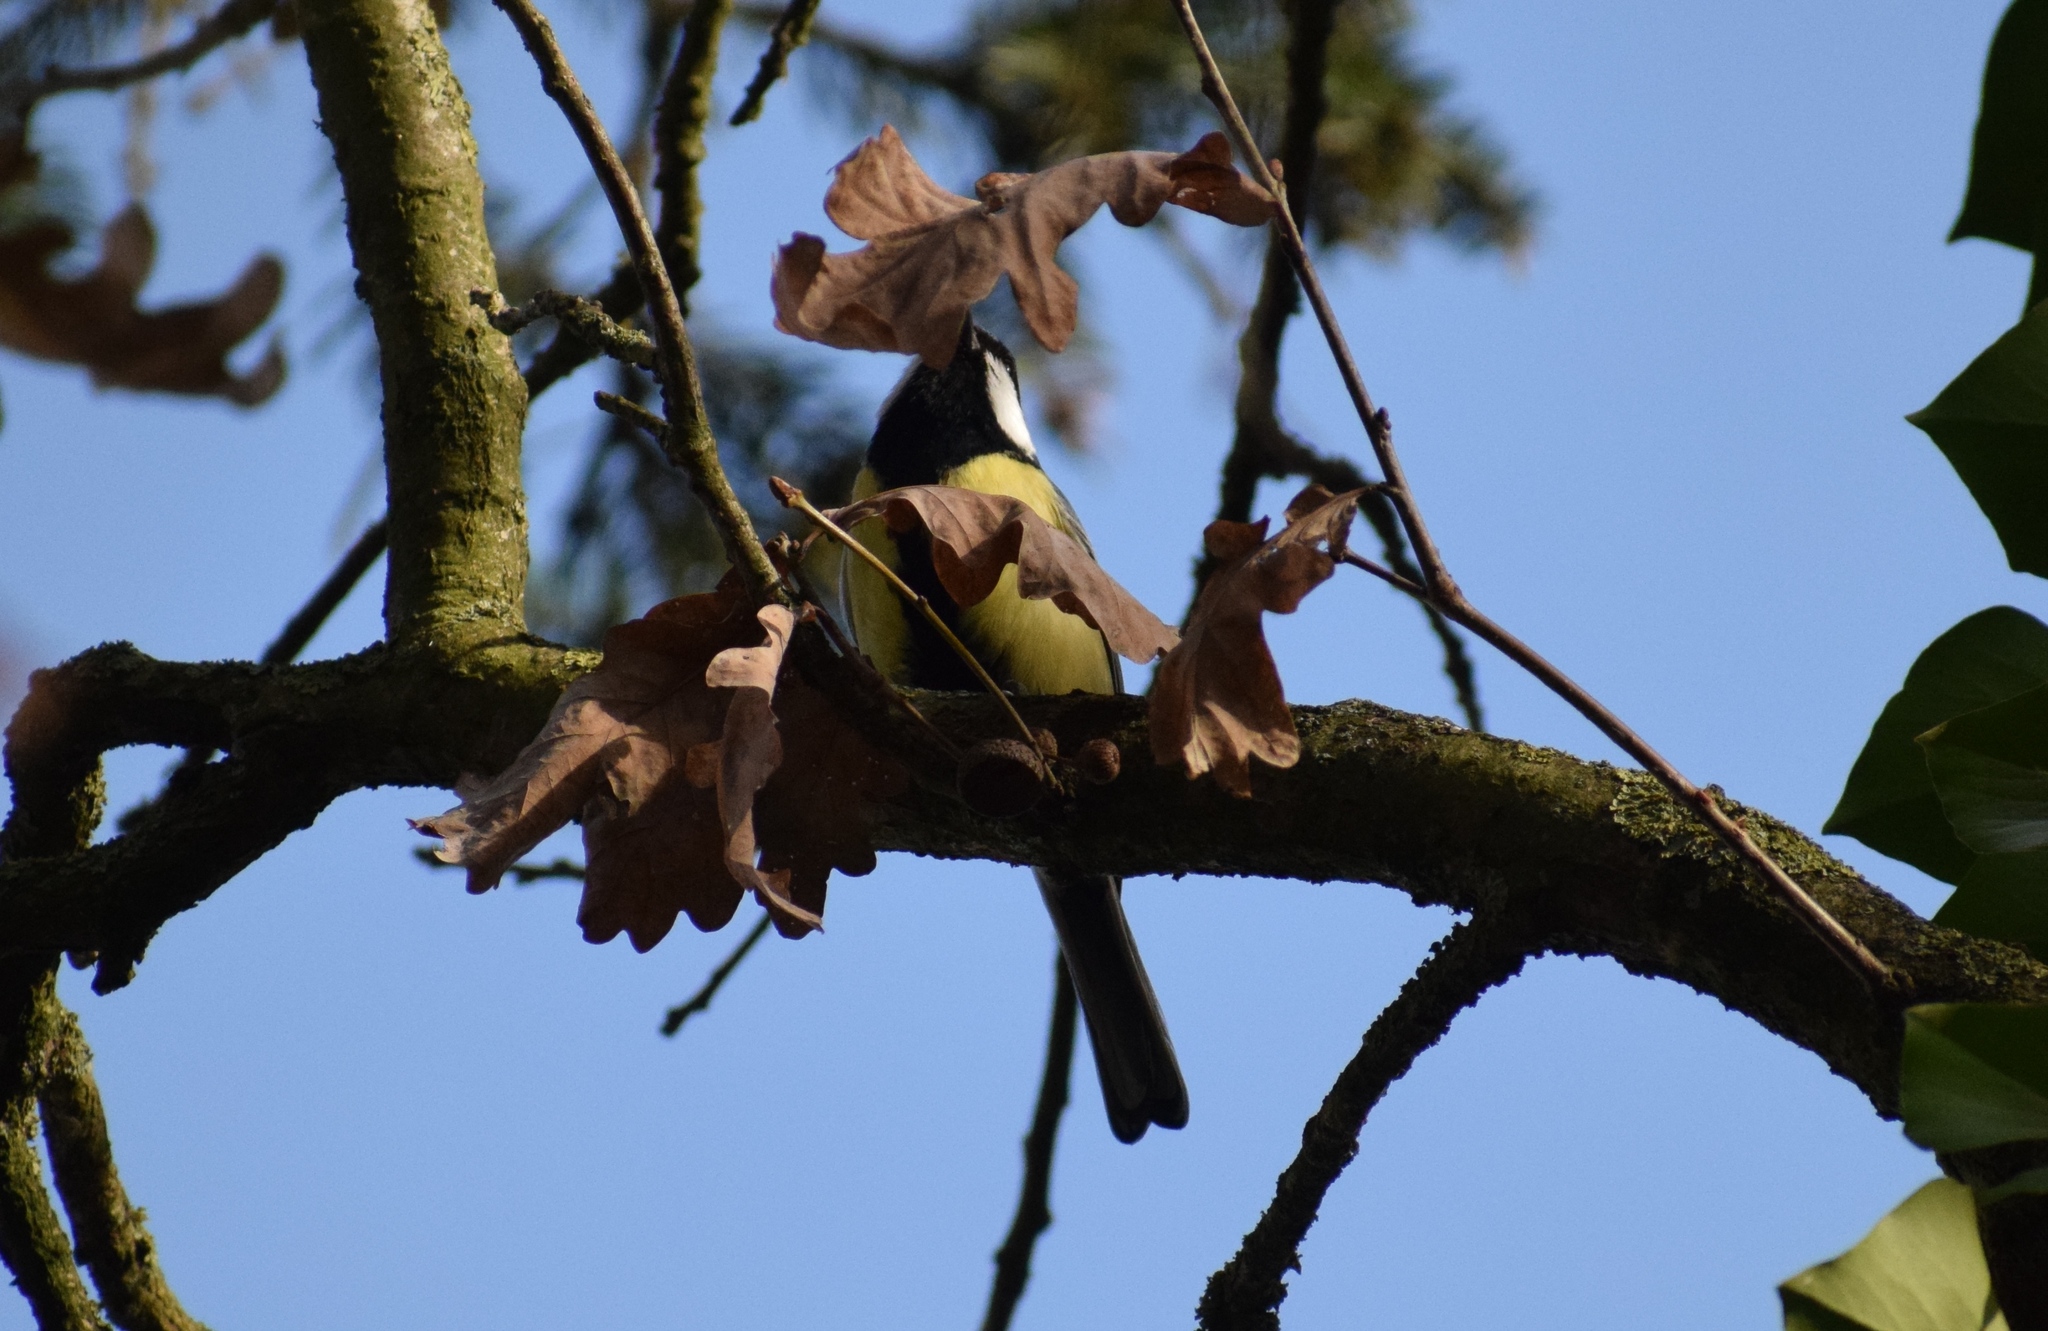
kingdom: Animalia
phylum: Chordata
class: Aves
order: Passeriformes
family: Paridae
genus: Parus
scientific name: Parus major
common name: Great tit
